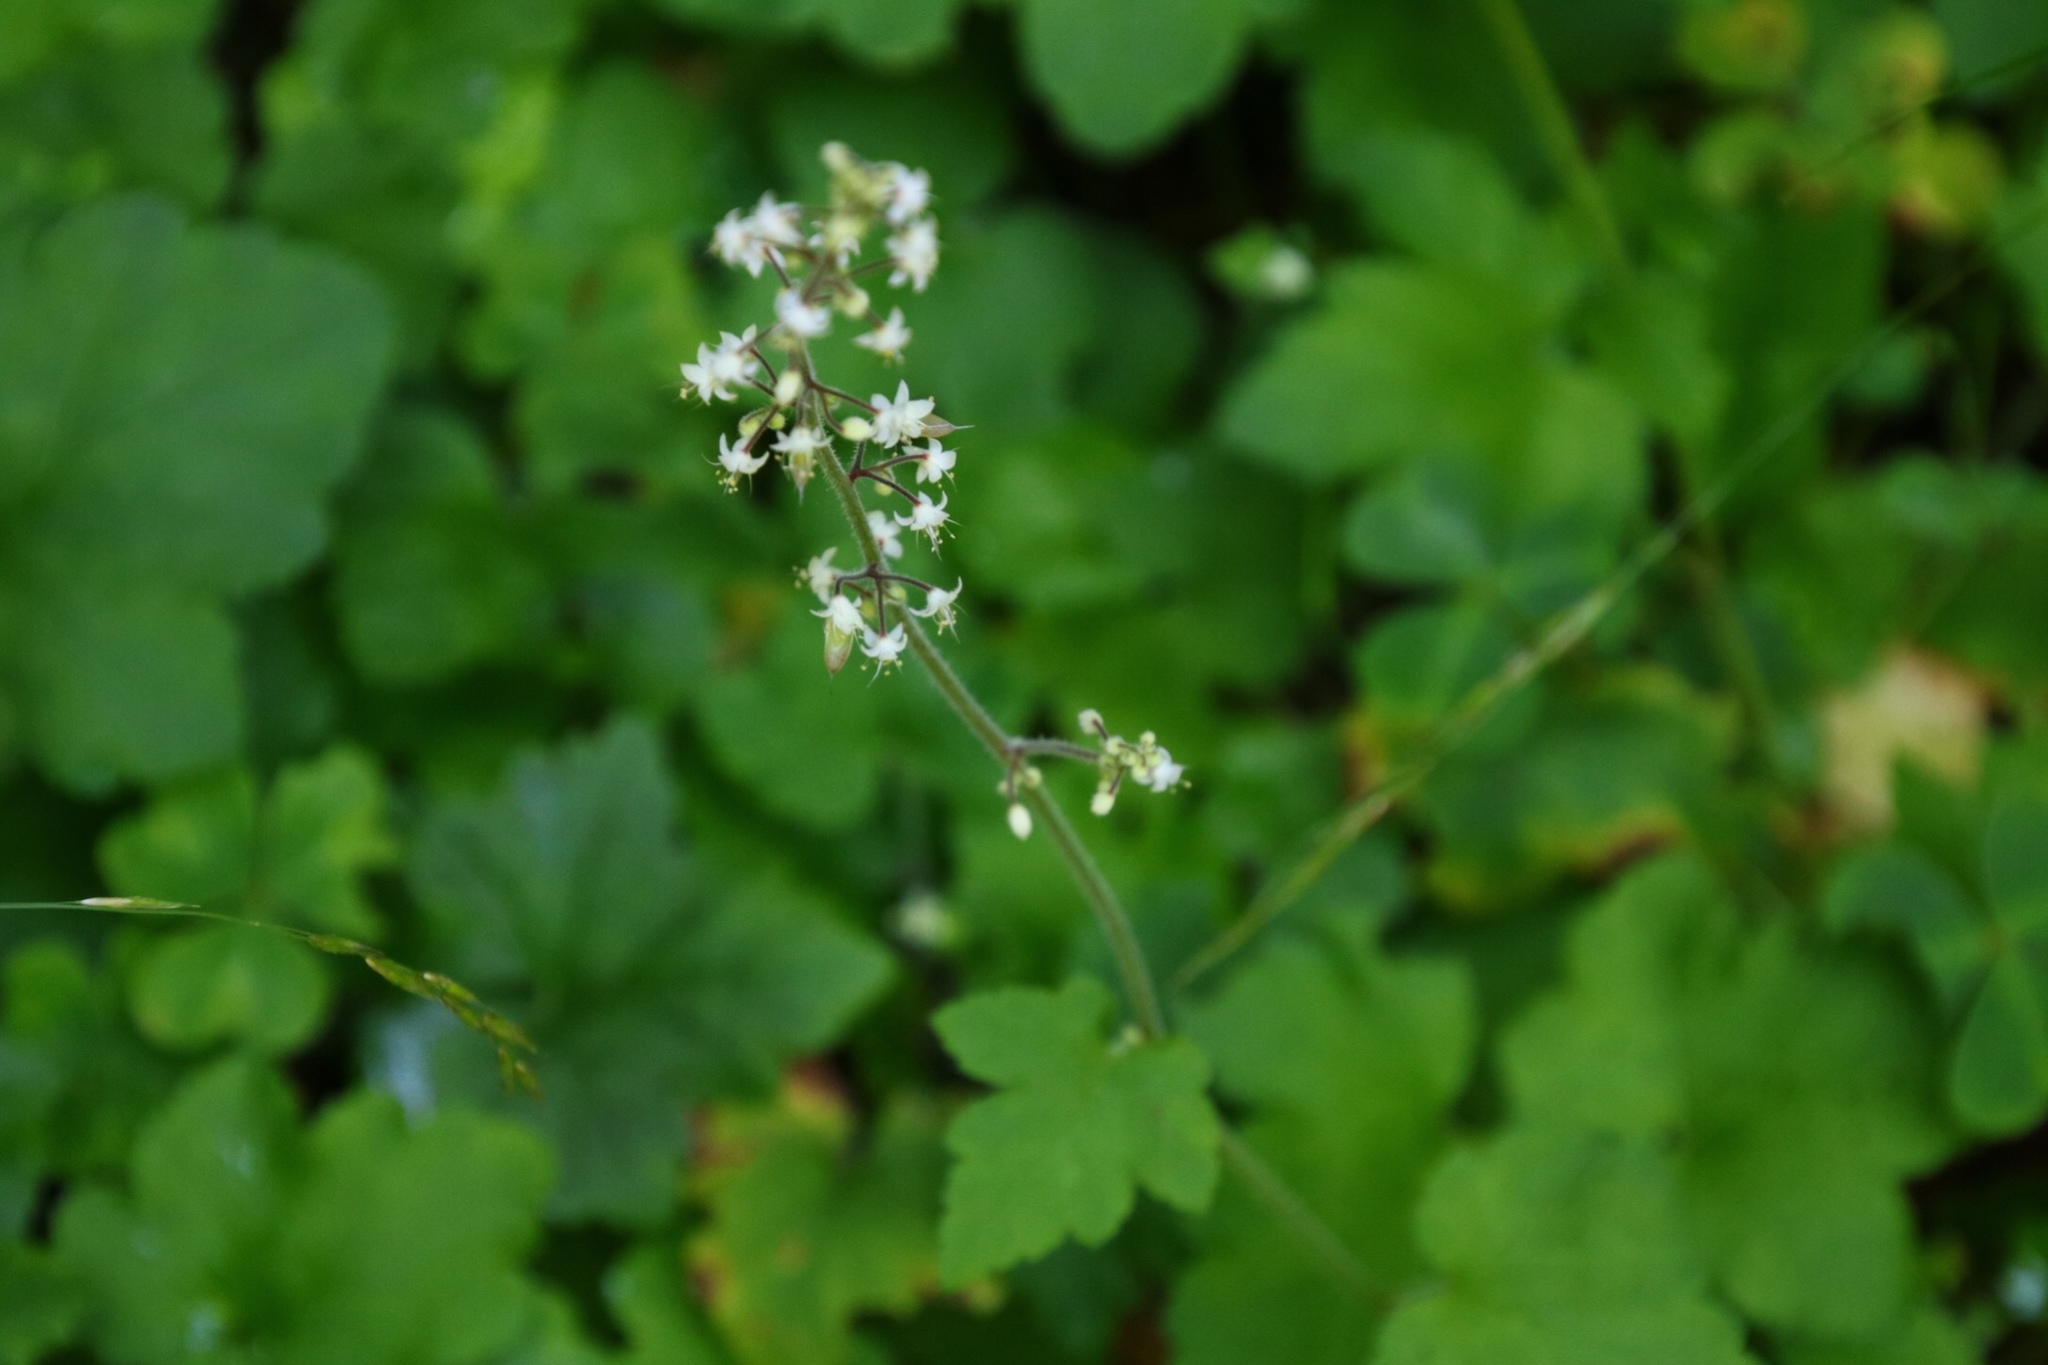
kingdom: Plantae
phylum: Tracheophyta
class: Magnoliopsida
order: Saxifragales
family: Saxifragaceae
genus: Tiarella
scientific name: Tiarella trifoliata
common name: Sugar-scoop
